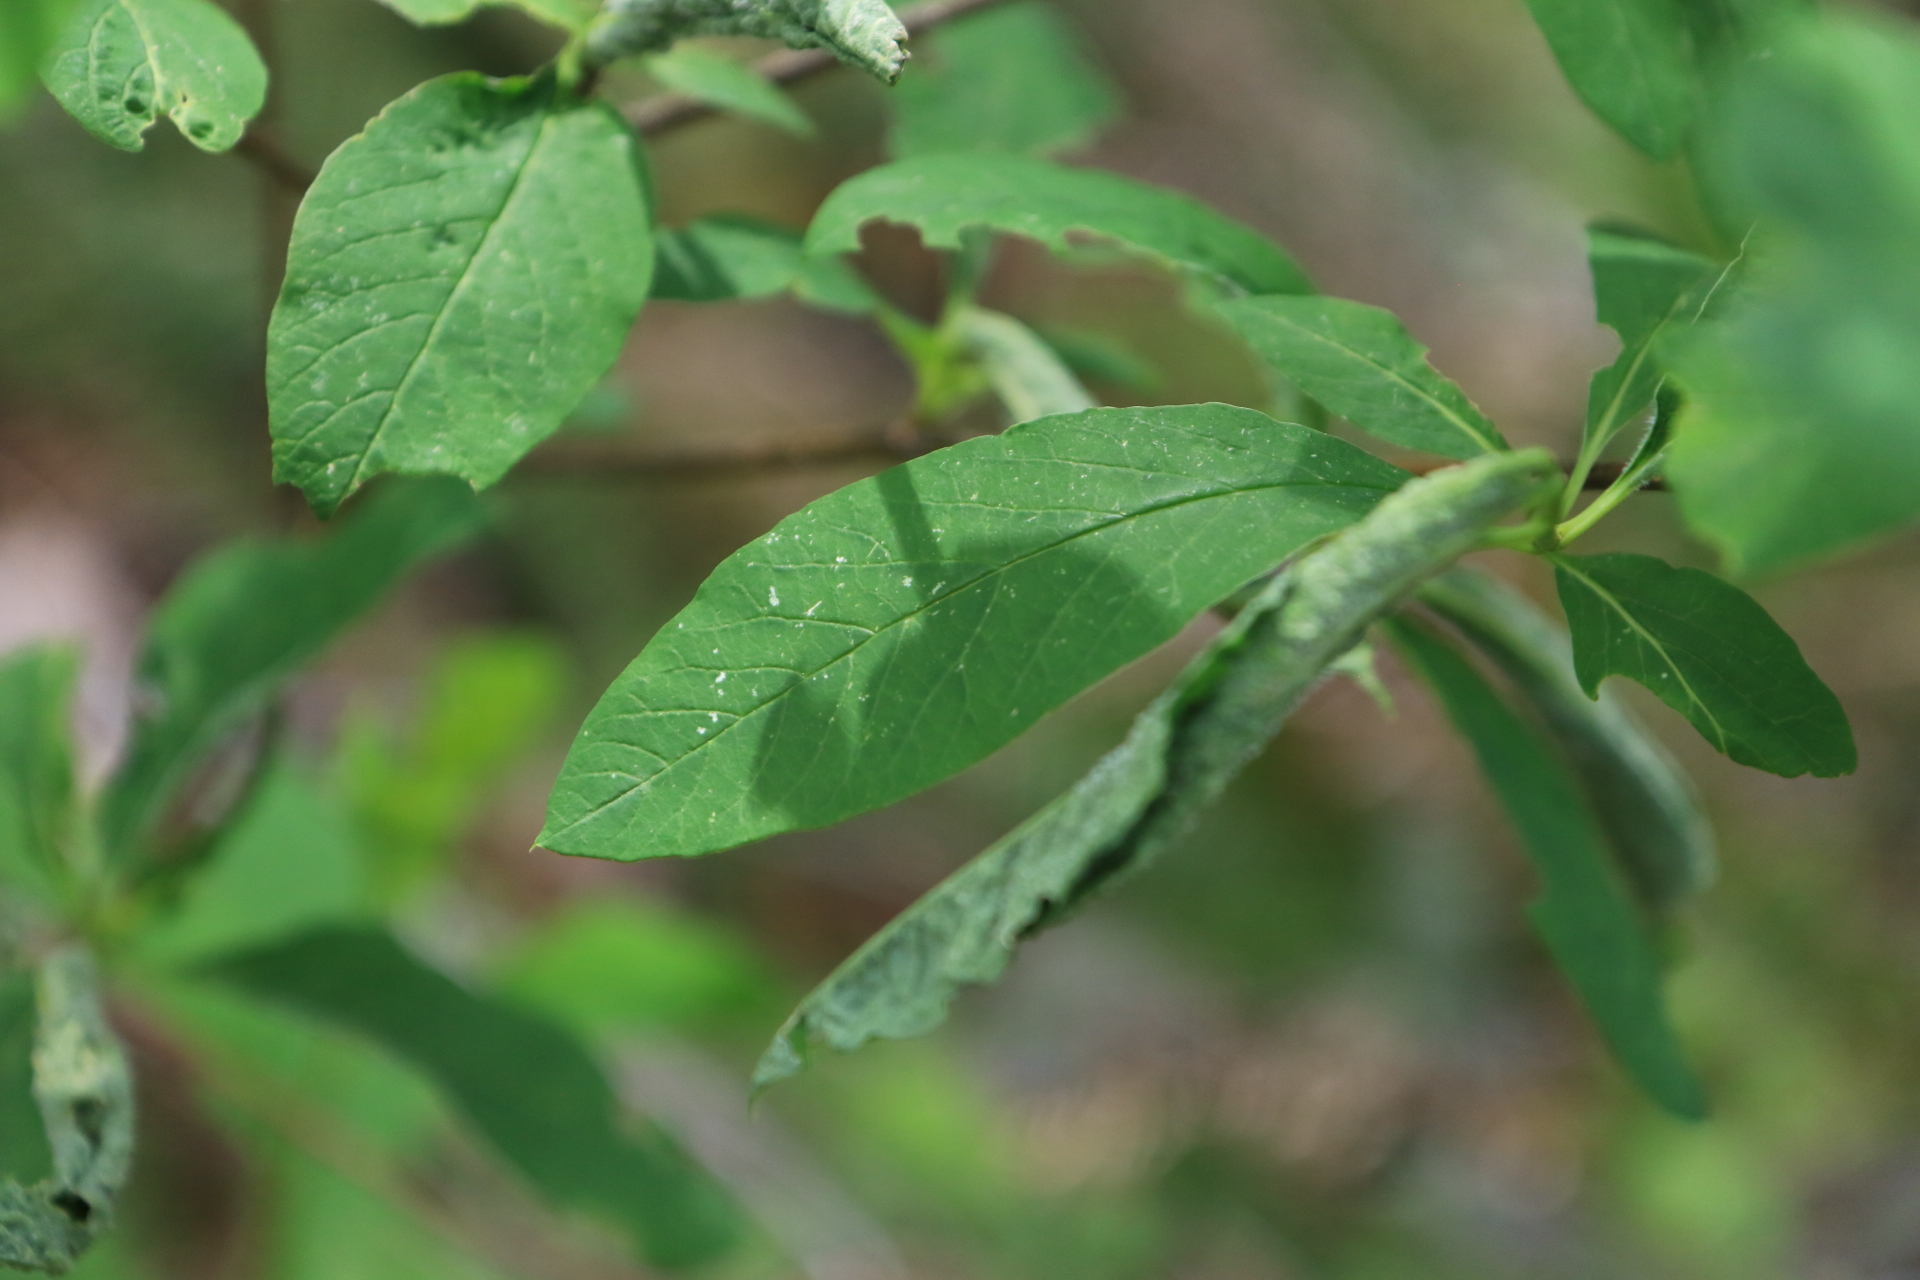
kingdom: Plantae
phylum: Tracheophyta
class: Magnoliopsida
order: Rosales
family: Rosaceae
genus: Oemleria
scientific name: Oemleria cerasiformis
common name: Osoberry
